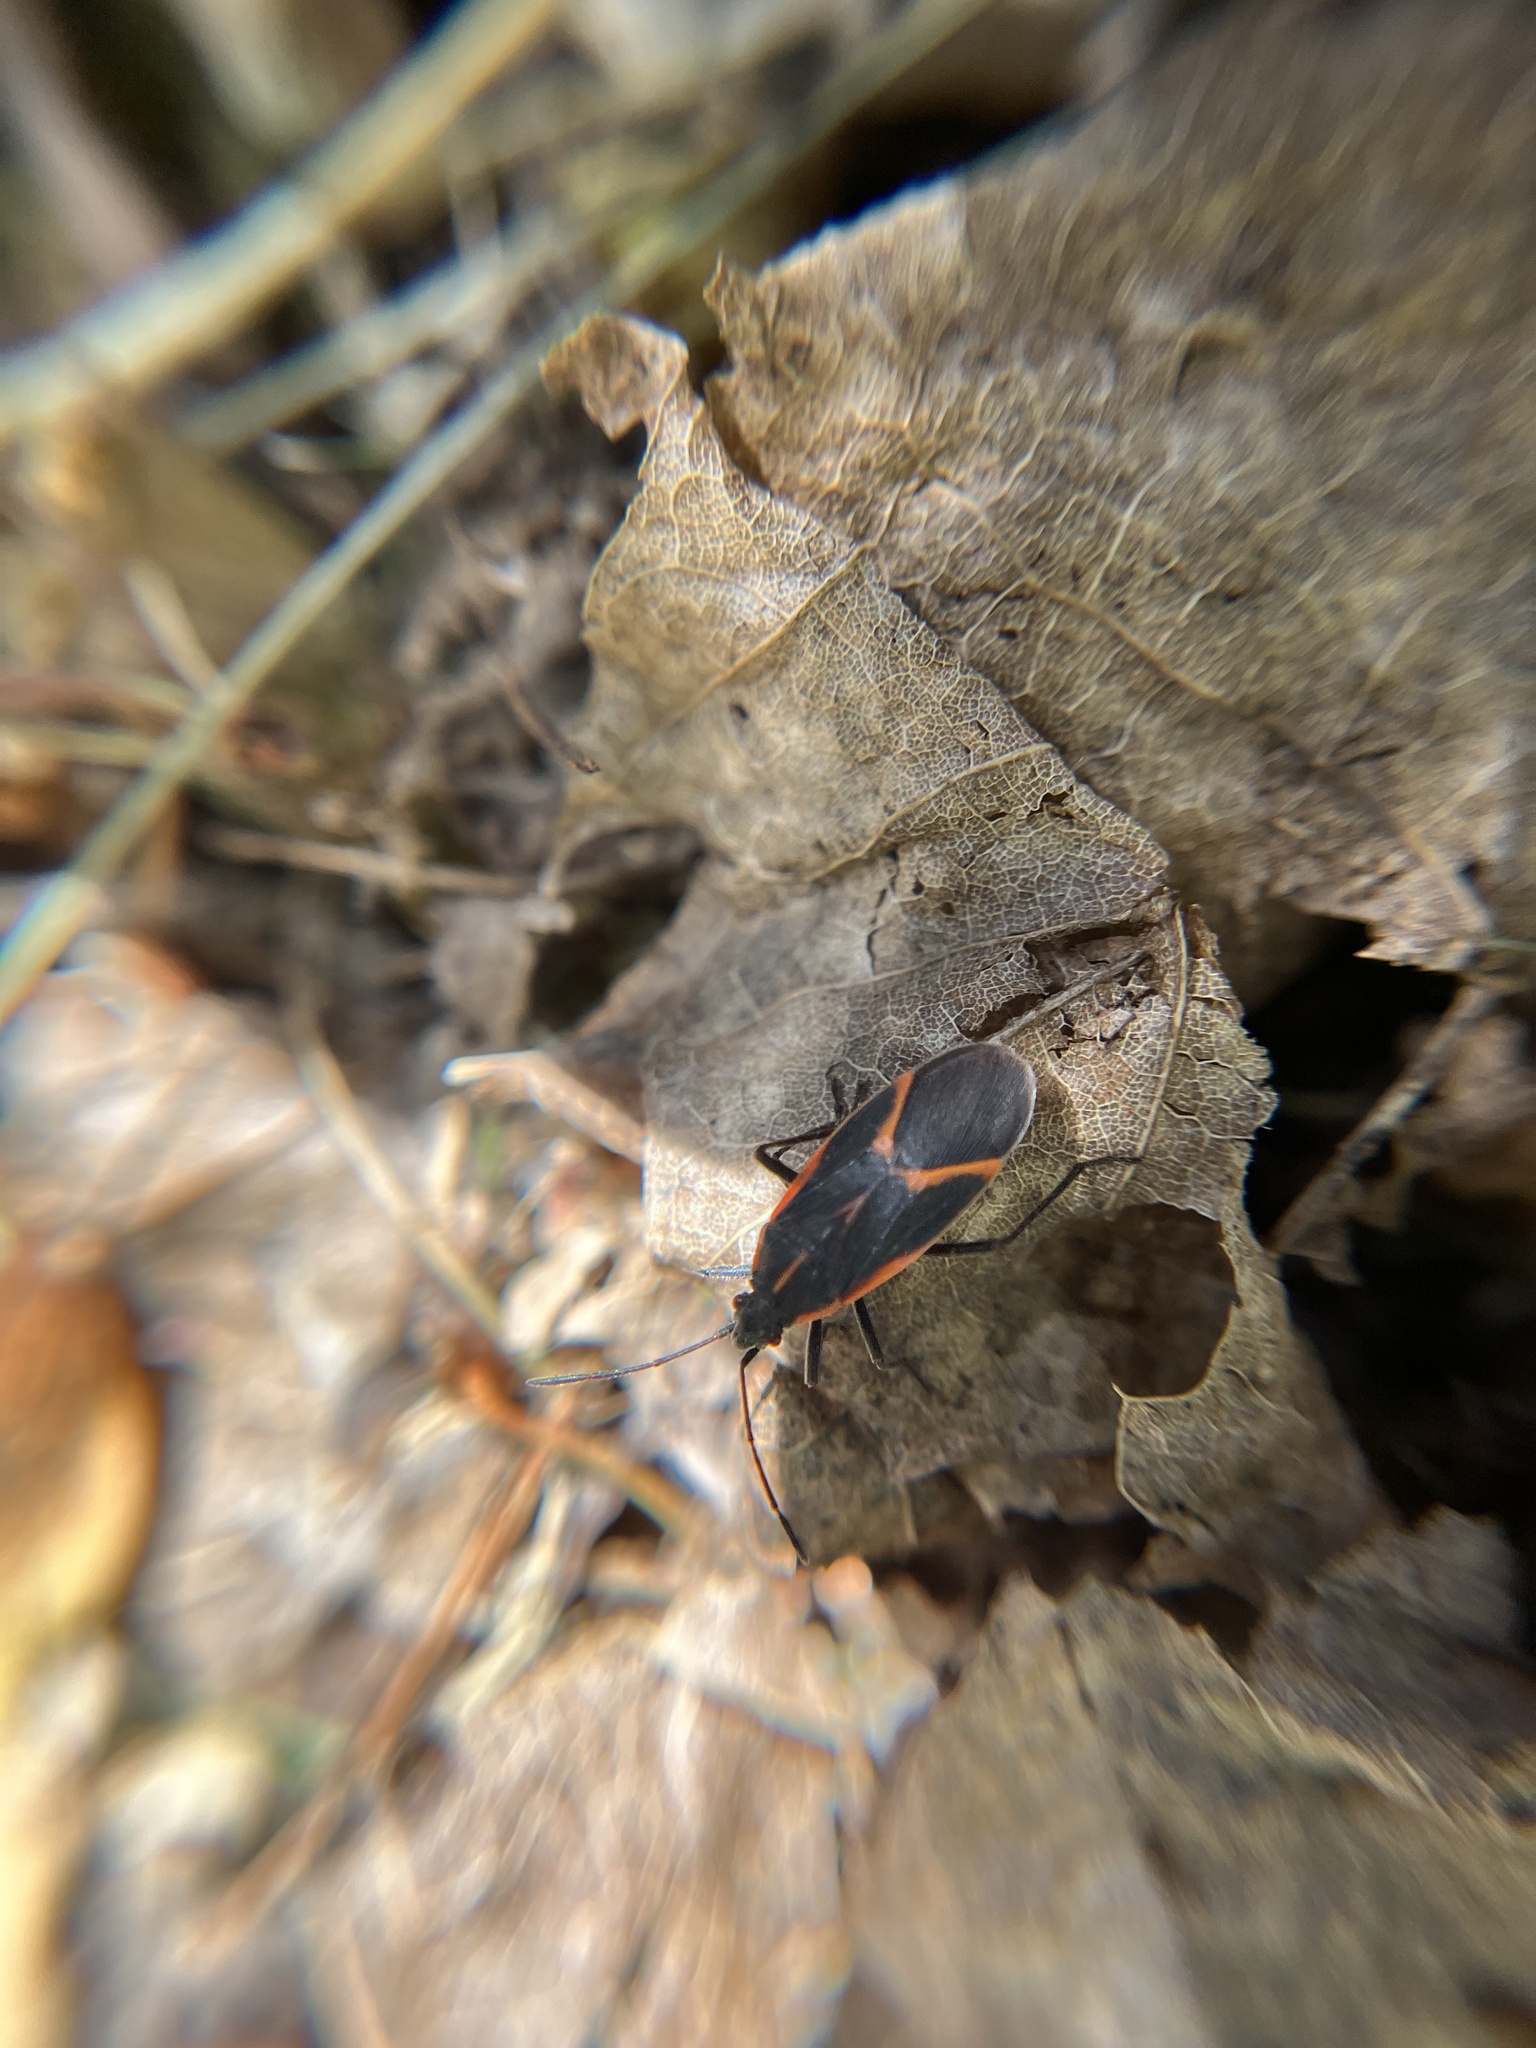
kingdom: Animalia
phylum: Arthropoda
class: Insecta
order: Hemiptera
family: Rhopalidae
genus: Boisea
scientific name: Boisea trivittata
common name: Boxelder bug
